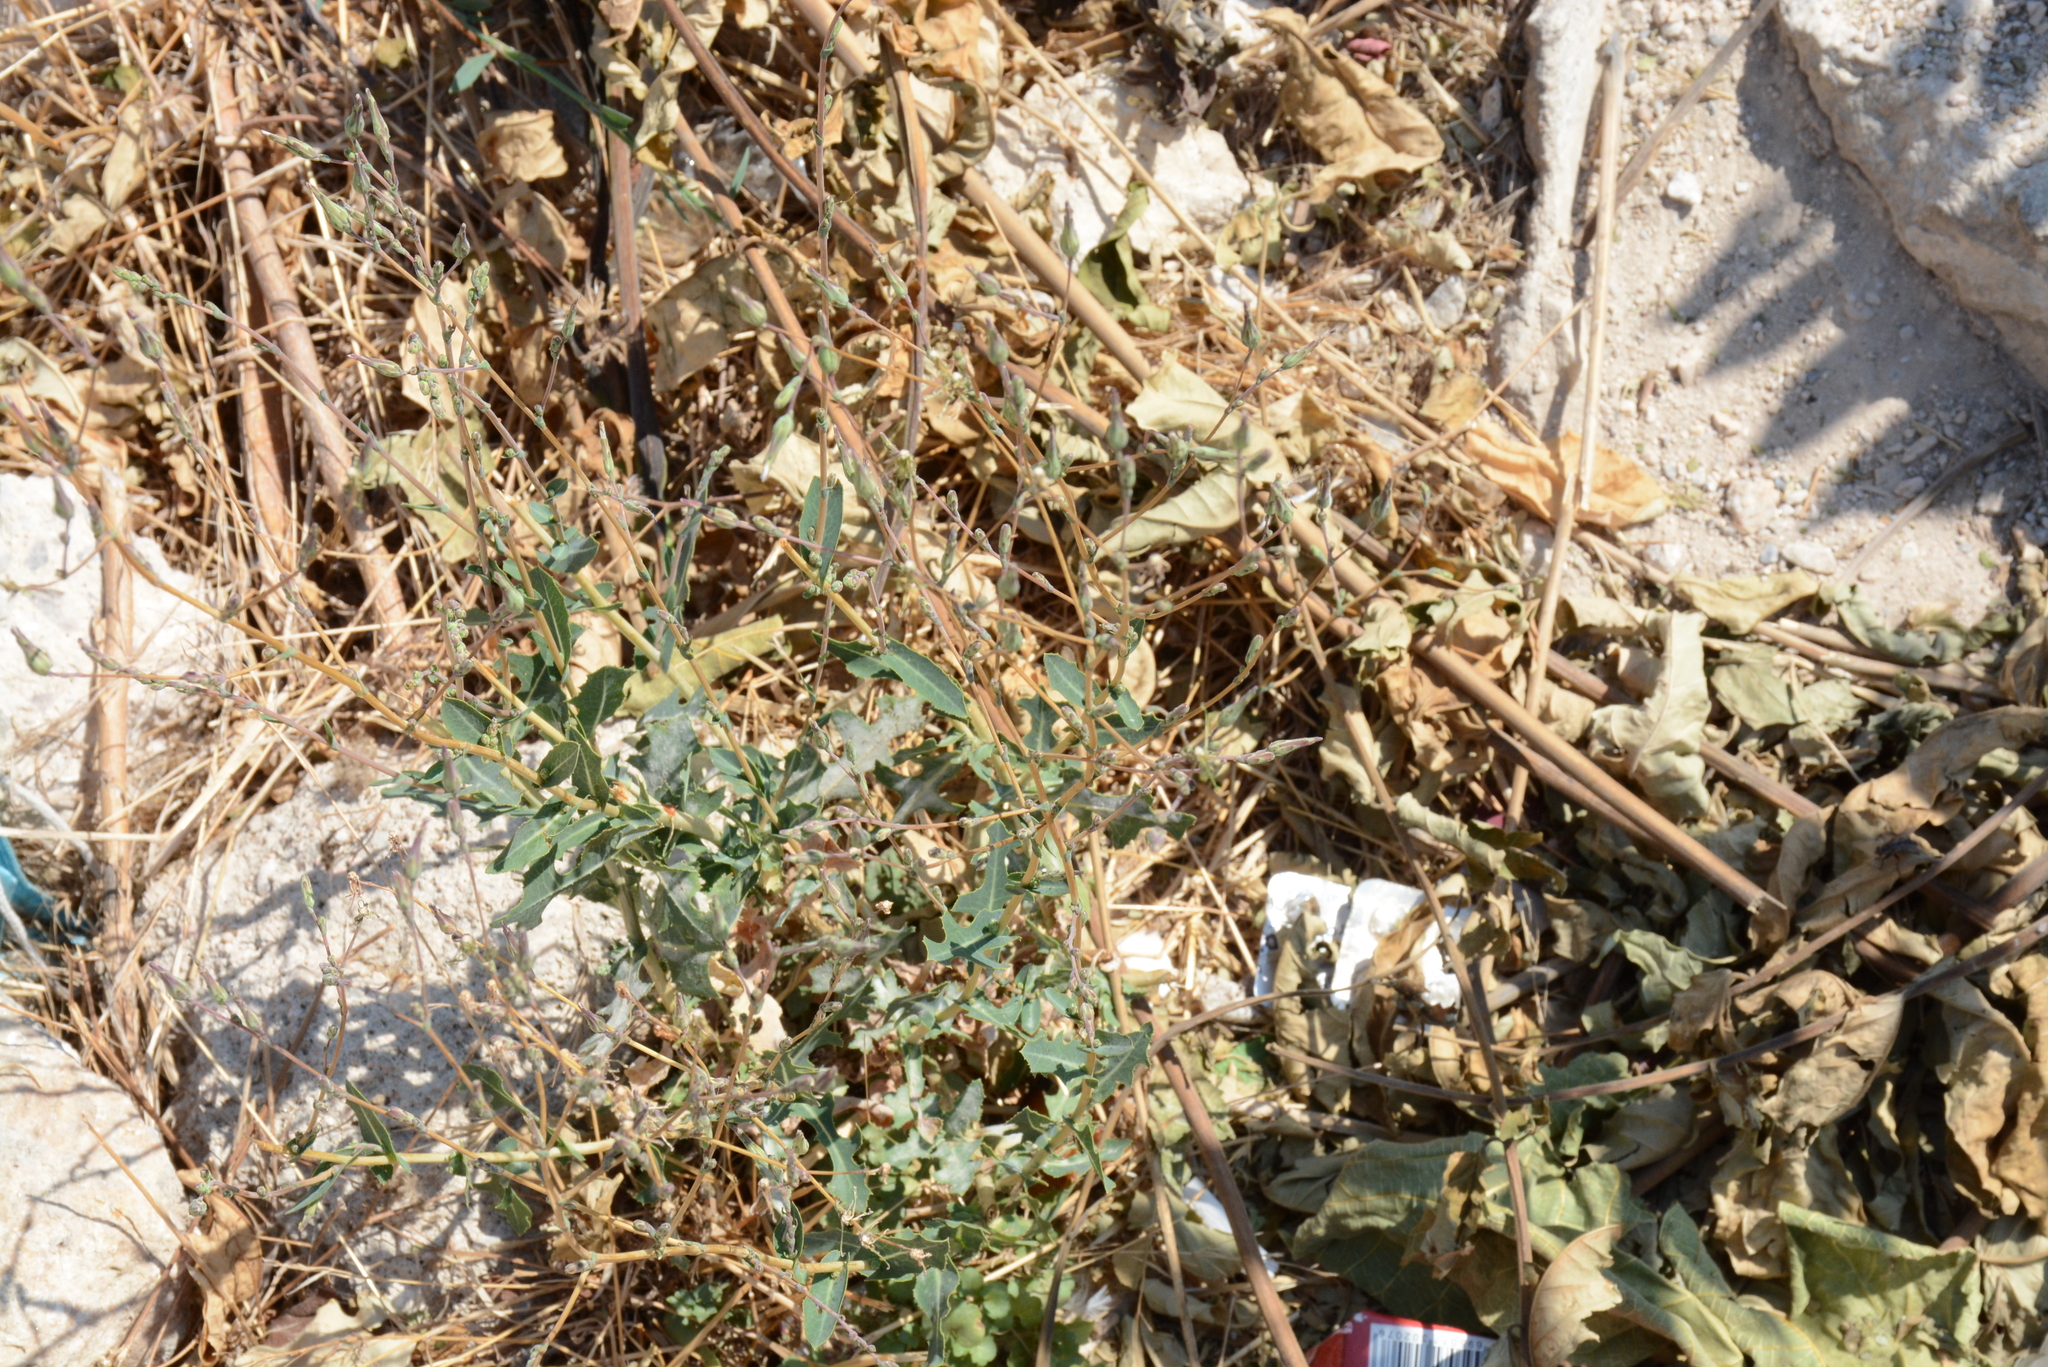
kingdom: Plantae
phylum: Tracheophyta
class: Magnoliopsida
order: Asterales
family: Asteraceae
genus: Lactuca
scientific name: Lactuca serriola
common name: Prickly lettuce
